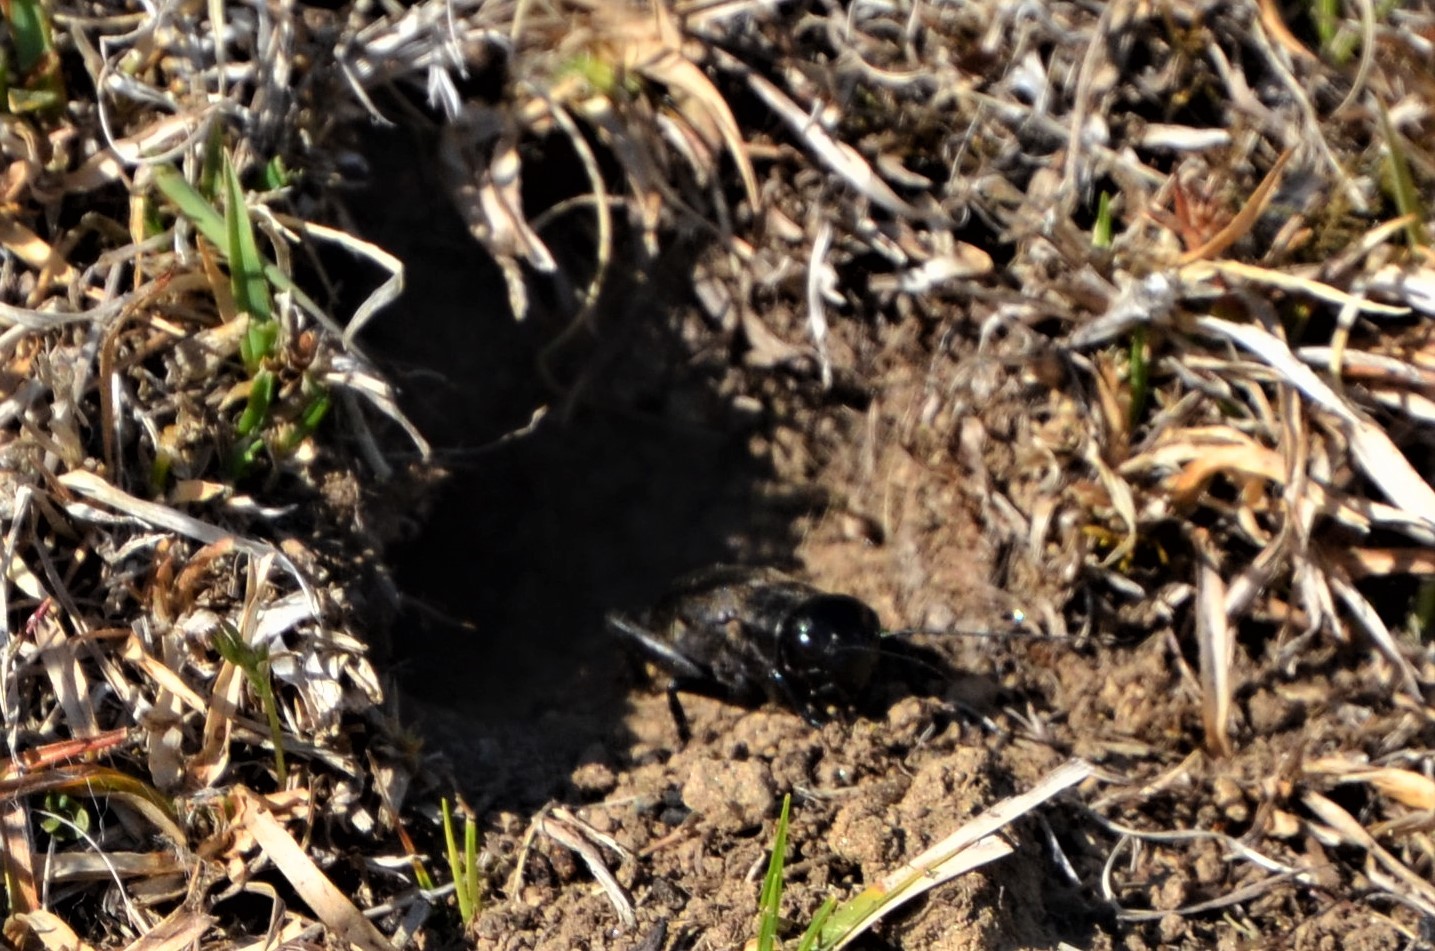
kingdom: Animalia
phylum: Arthropoda
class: Insecta
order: Orthoptera
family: Gryllidae
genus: Gryllus
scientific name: Gryllus campestris
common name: Field cricket
